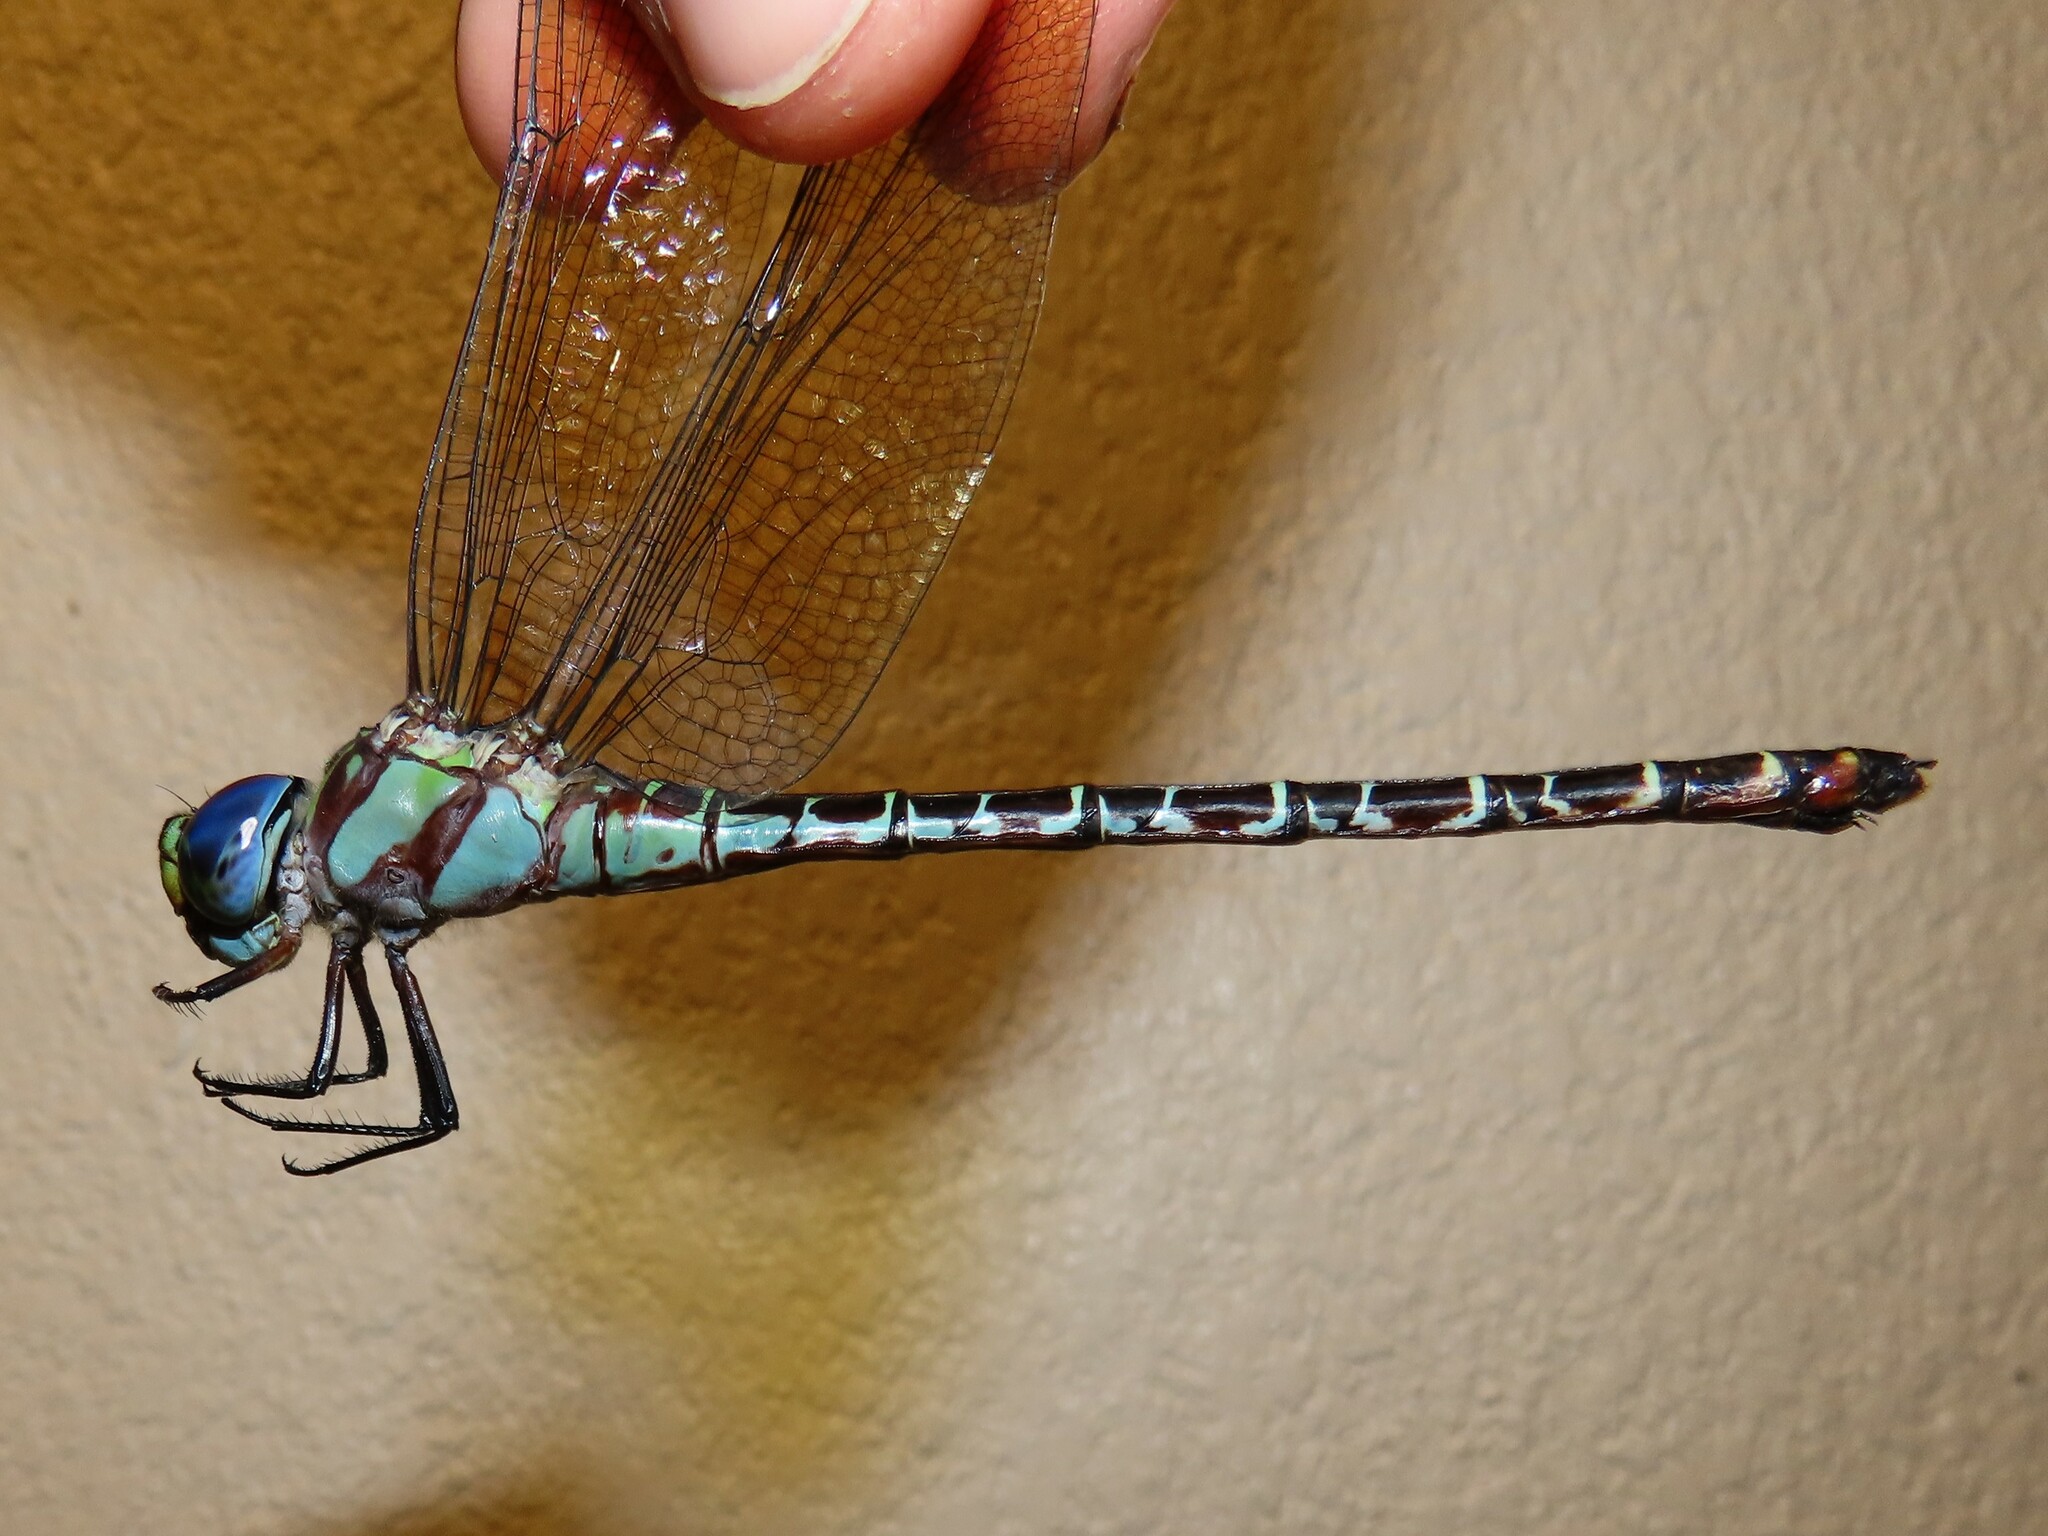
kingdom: Animalia
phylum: Arthropoda
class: Insecta
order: Odonata
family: Aeshnidae
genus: Coryphaeschna
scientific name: Coryphaeschna ingens
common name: Regal darner
